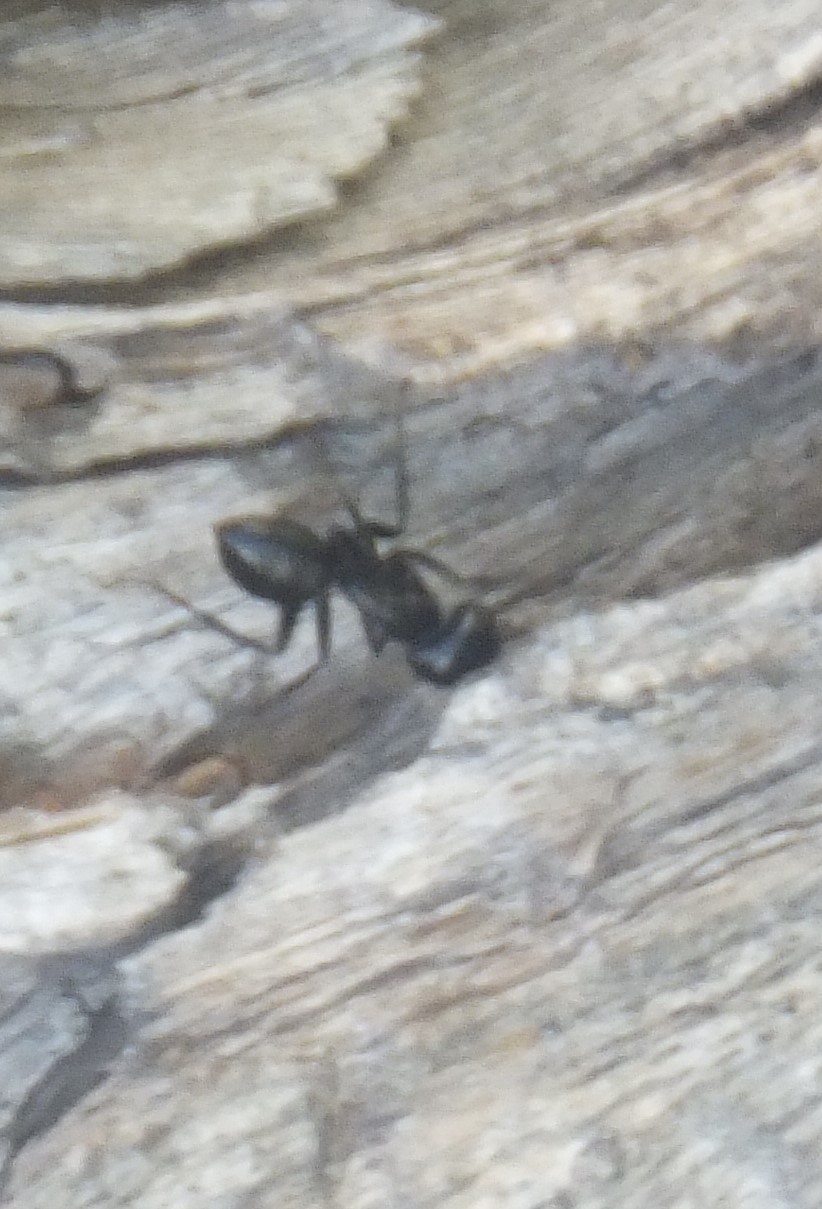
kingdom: Animalia
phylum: Arthropoda
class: Insecta
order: Hymenoptera
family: Formicidae
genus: Camponotus
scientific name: Camponotus modoc
